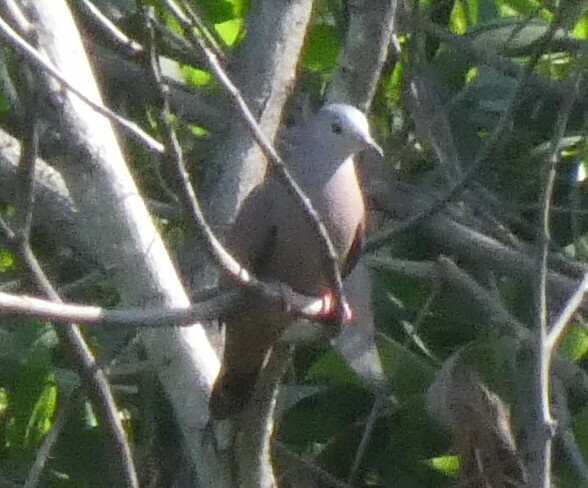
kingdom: Animalia
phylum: Chordata
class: Aves
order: Columbiformes
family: Columbidae
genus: Columbina
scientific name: Columbina talpacoti
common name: Ruddy ground dove
